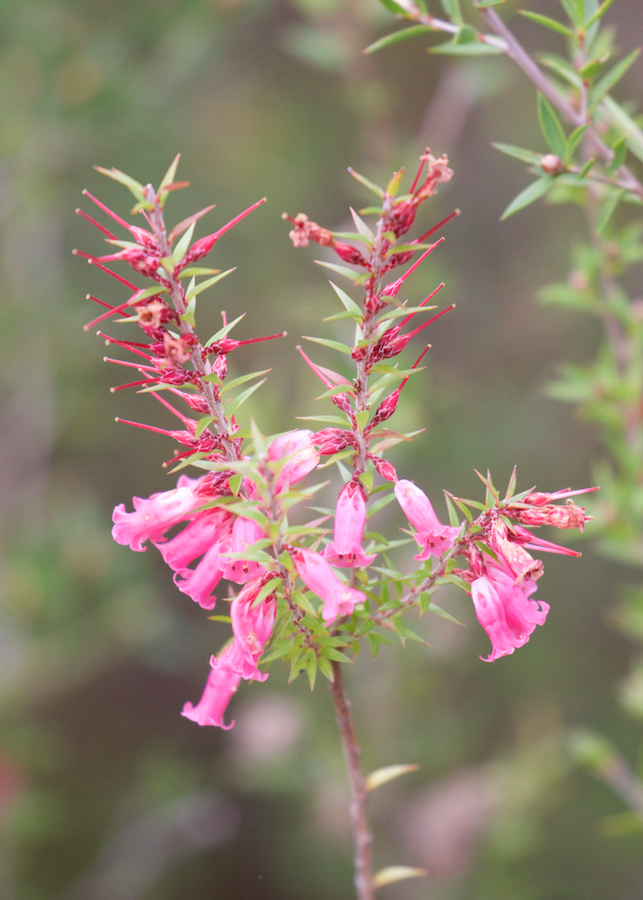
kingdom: Plantae
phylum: Tracheophyta
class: Magnoliopsida
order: Ericales
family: Ericaceae
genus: Epacris
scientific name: Epacris impressa
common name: Common-heath
